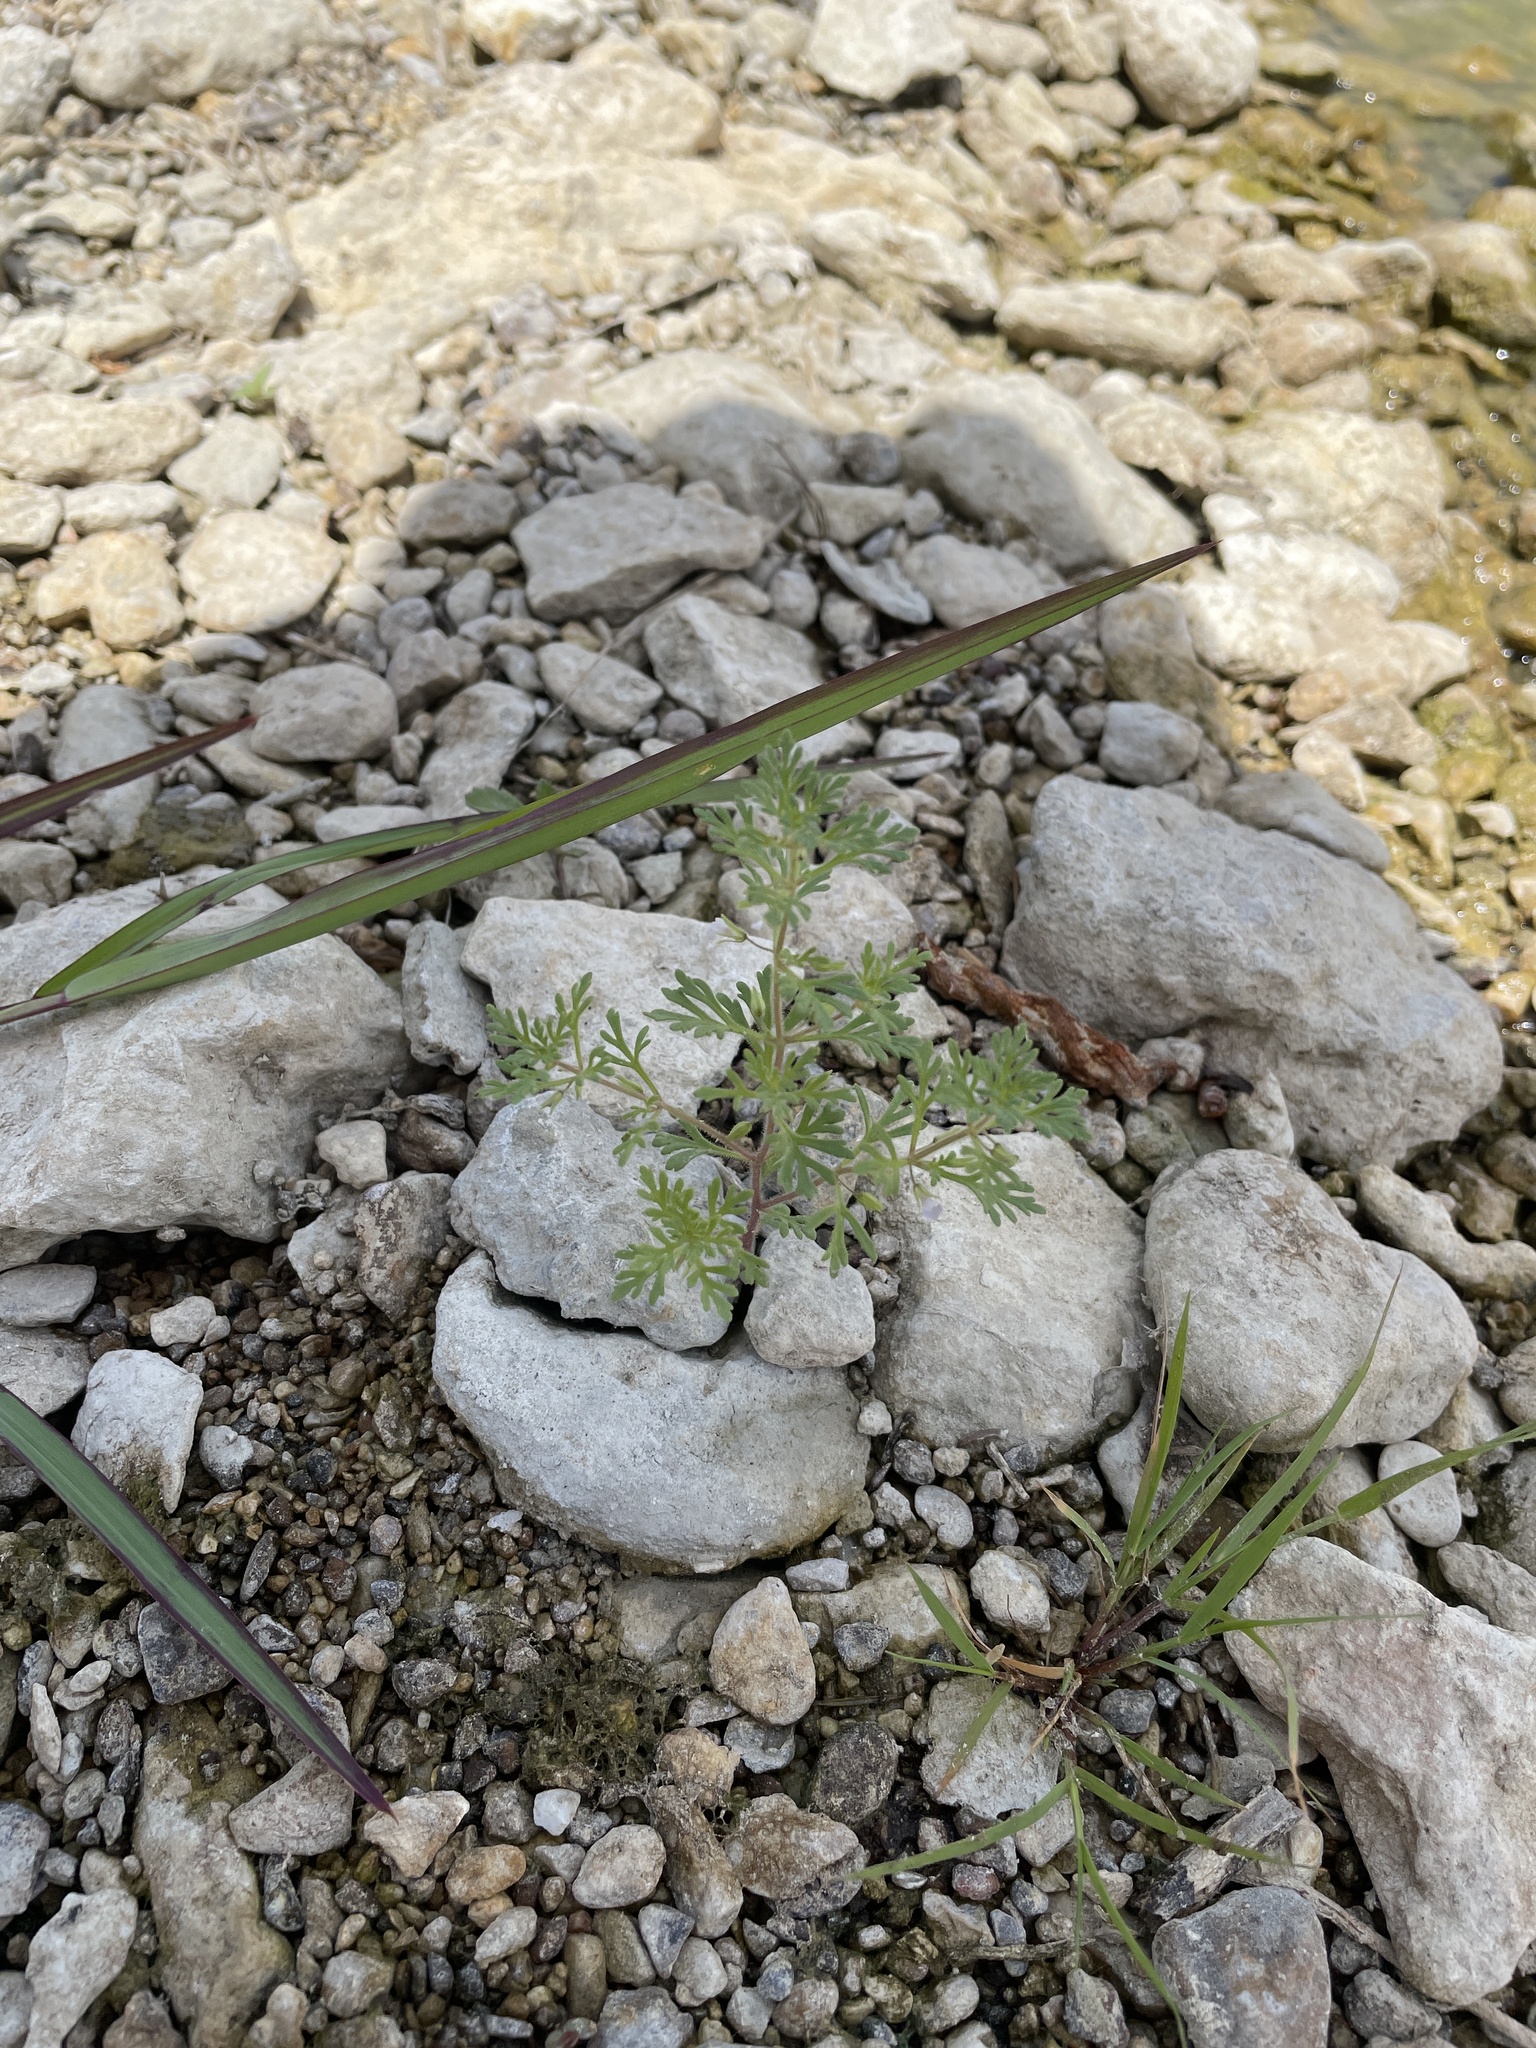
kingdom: Plantae
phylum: Tracheophyta
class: Magnoliopsida
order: Lamiales
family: Plantaginaceae
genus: Leucospora
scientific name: Leucospora multifida
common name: Narrow-leaf paleseed
